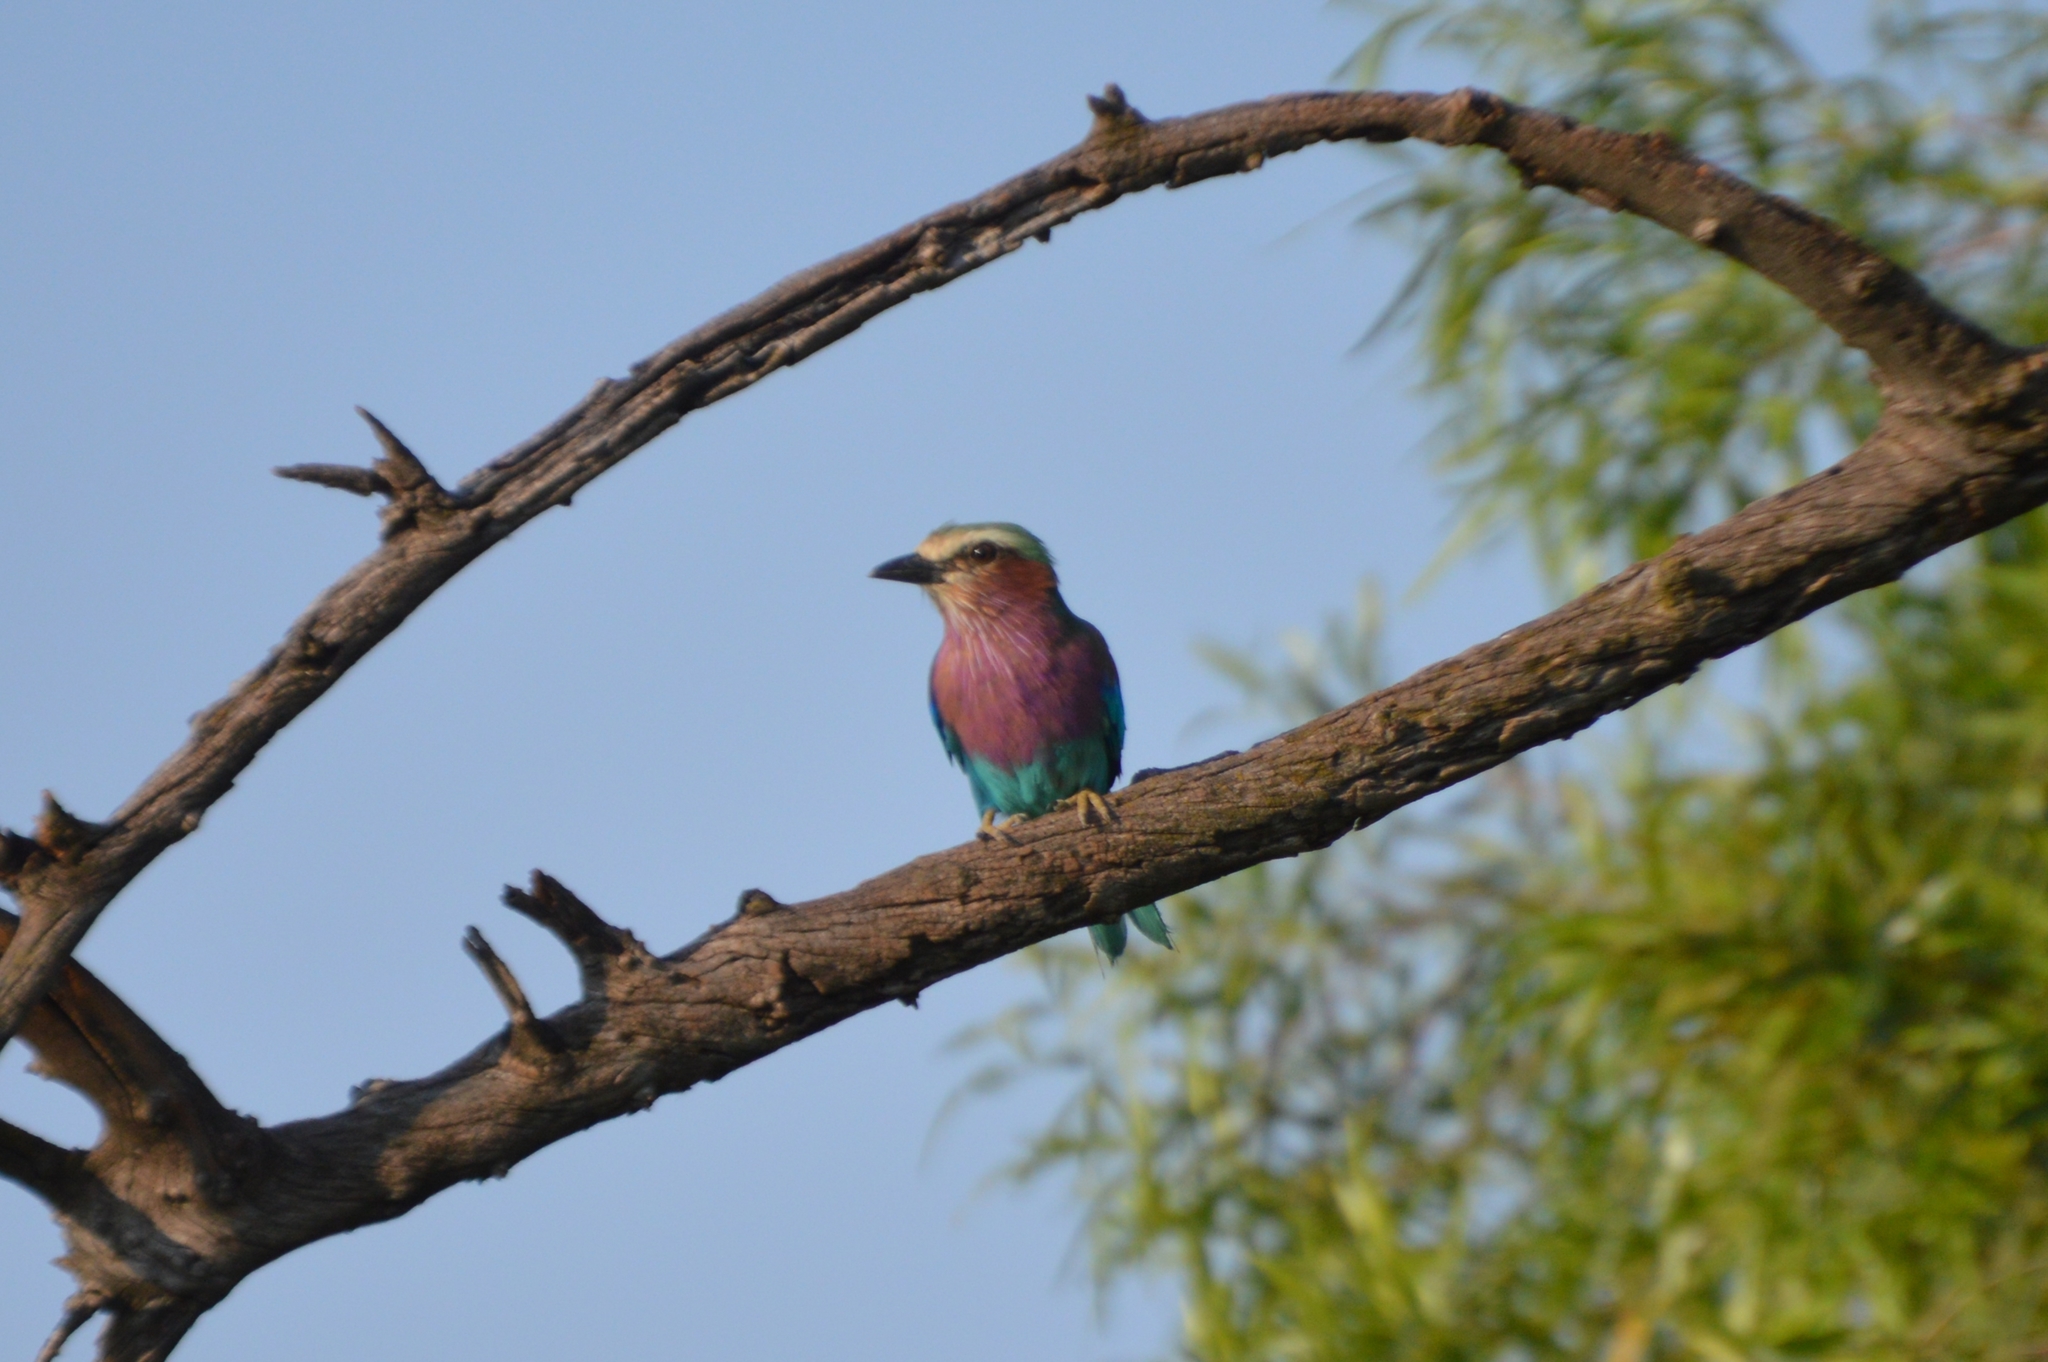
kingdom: Animalia
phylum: Chordata
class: Aves
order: Coraciiformes
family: Coraciidae
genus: Coracias
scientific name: Coracias caudatus
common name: Lilac-breasted roller
